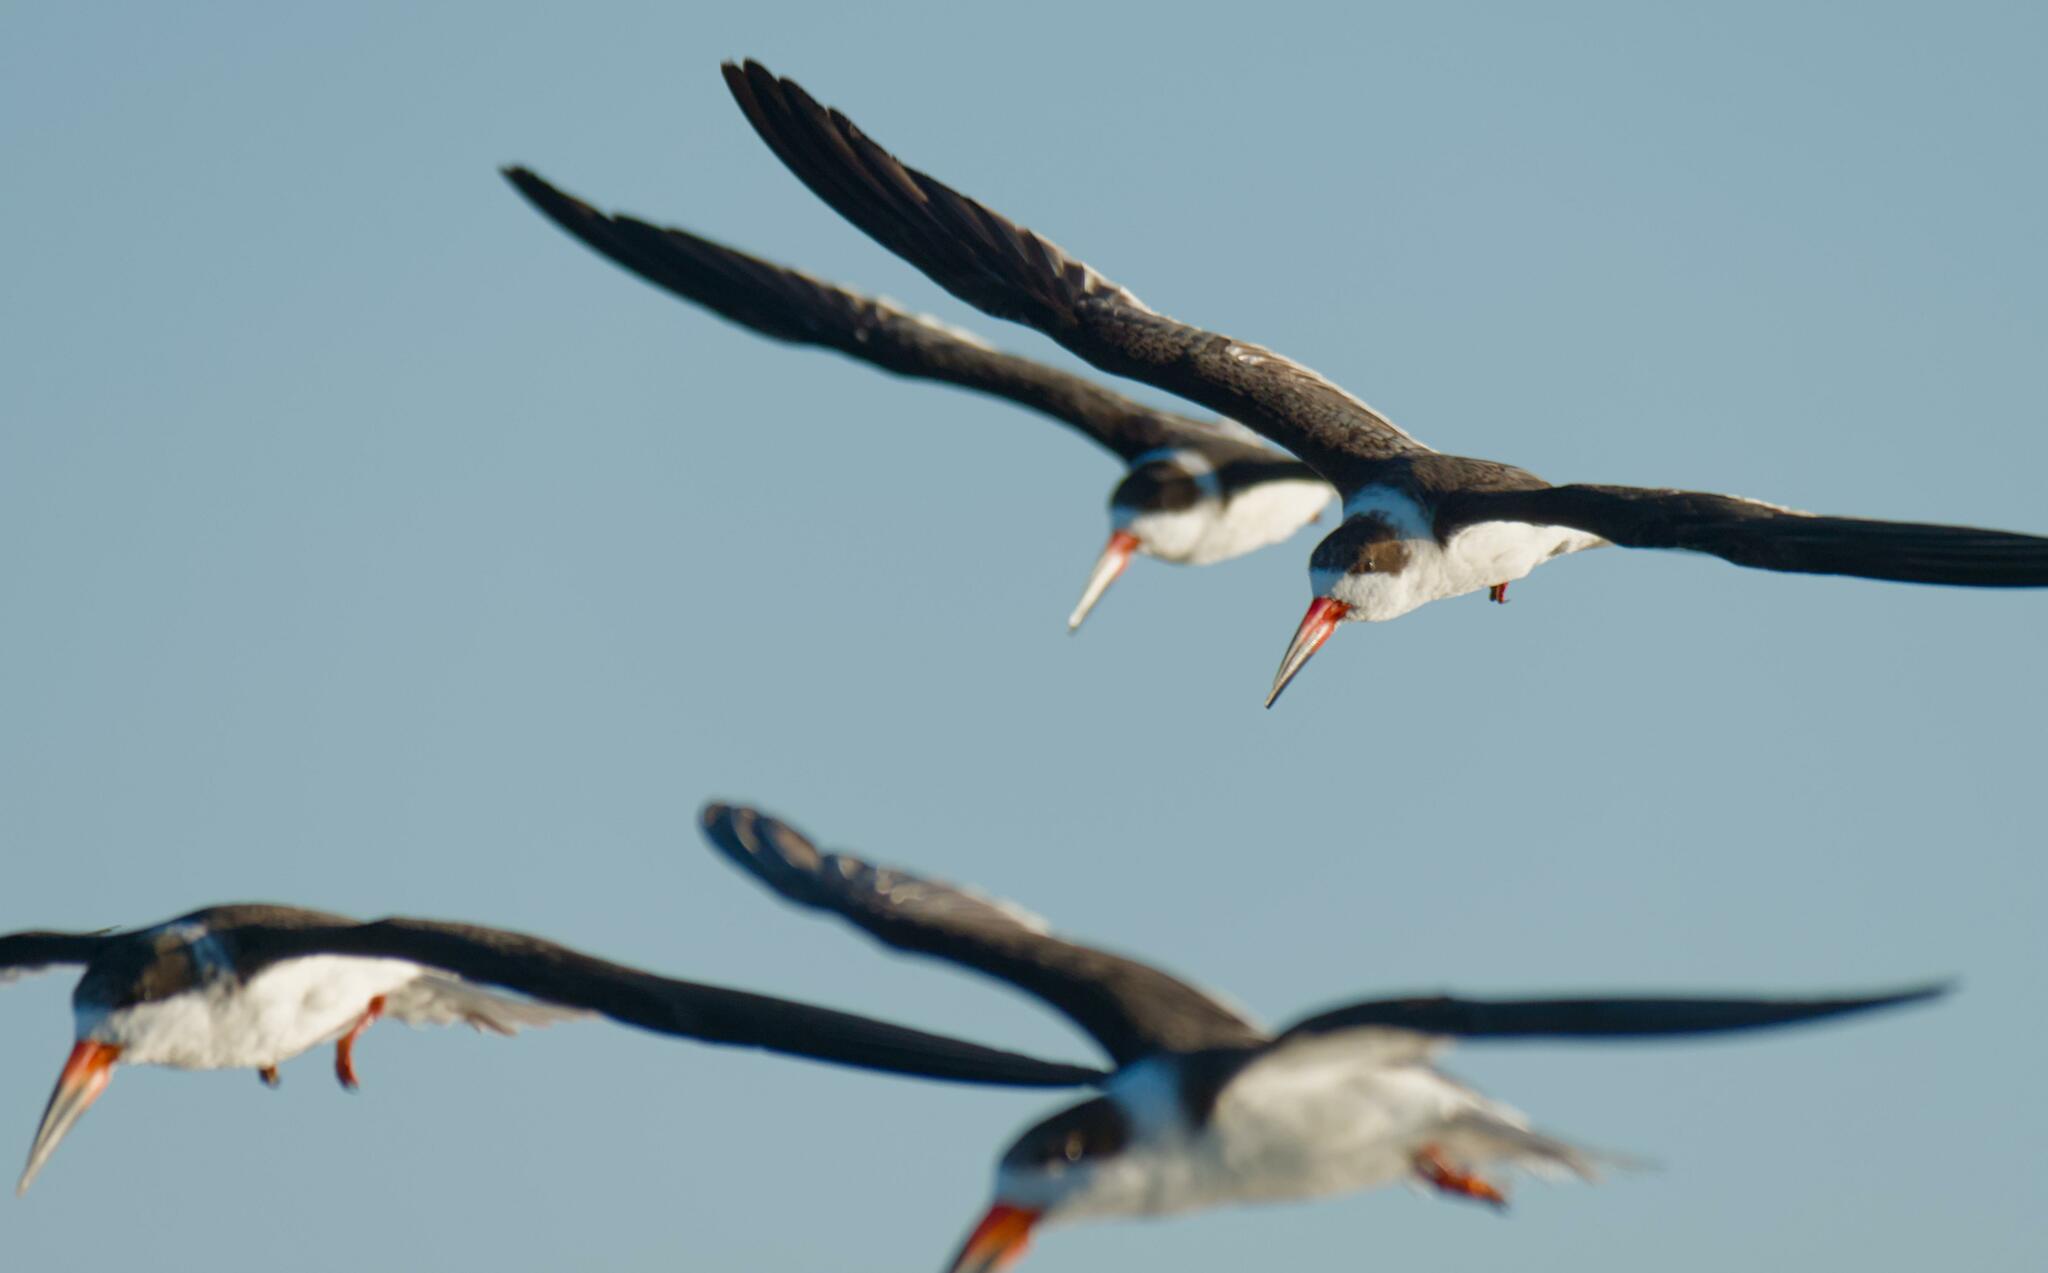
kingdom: Animalia
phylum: Chordata
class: Aves
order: Charadriiformes
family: Laridae
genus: Rynchops
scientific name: Rynchops niger
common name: Black skimmer
